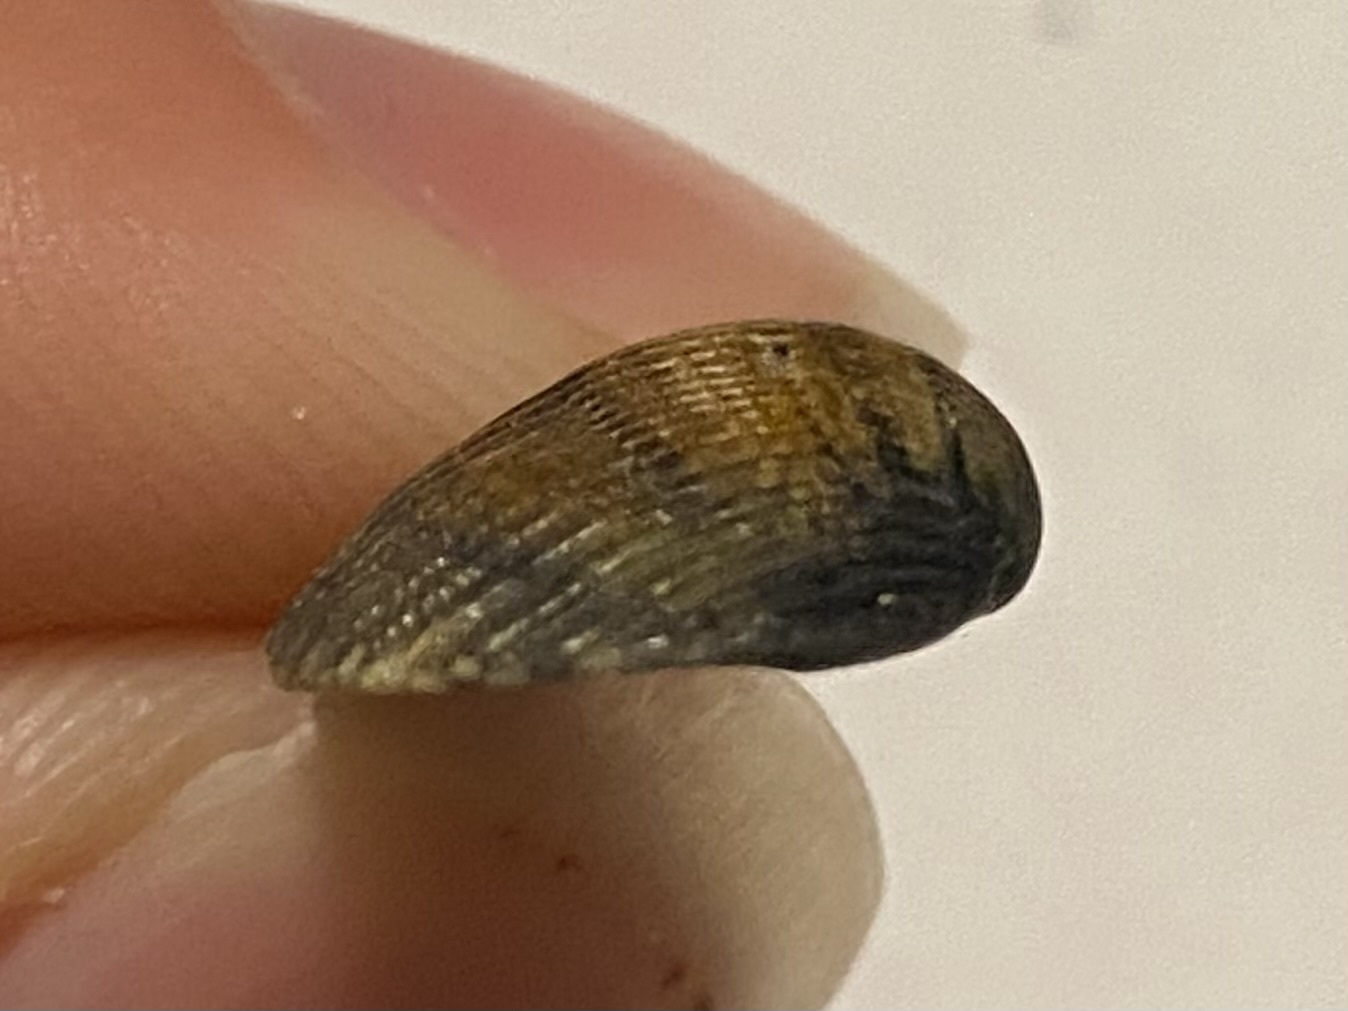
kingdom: Animalia
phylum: Mollusca
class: Bivalvia
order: Arcida
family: Noetiidae
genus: Noetia
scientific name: Noetia ponderosa
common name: Ponderous ark
